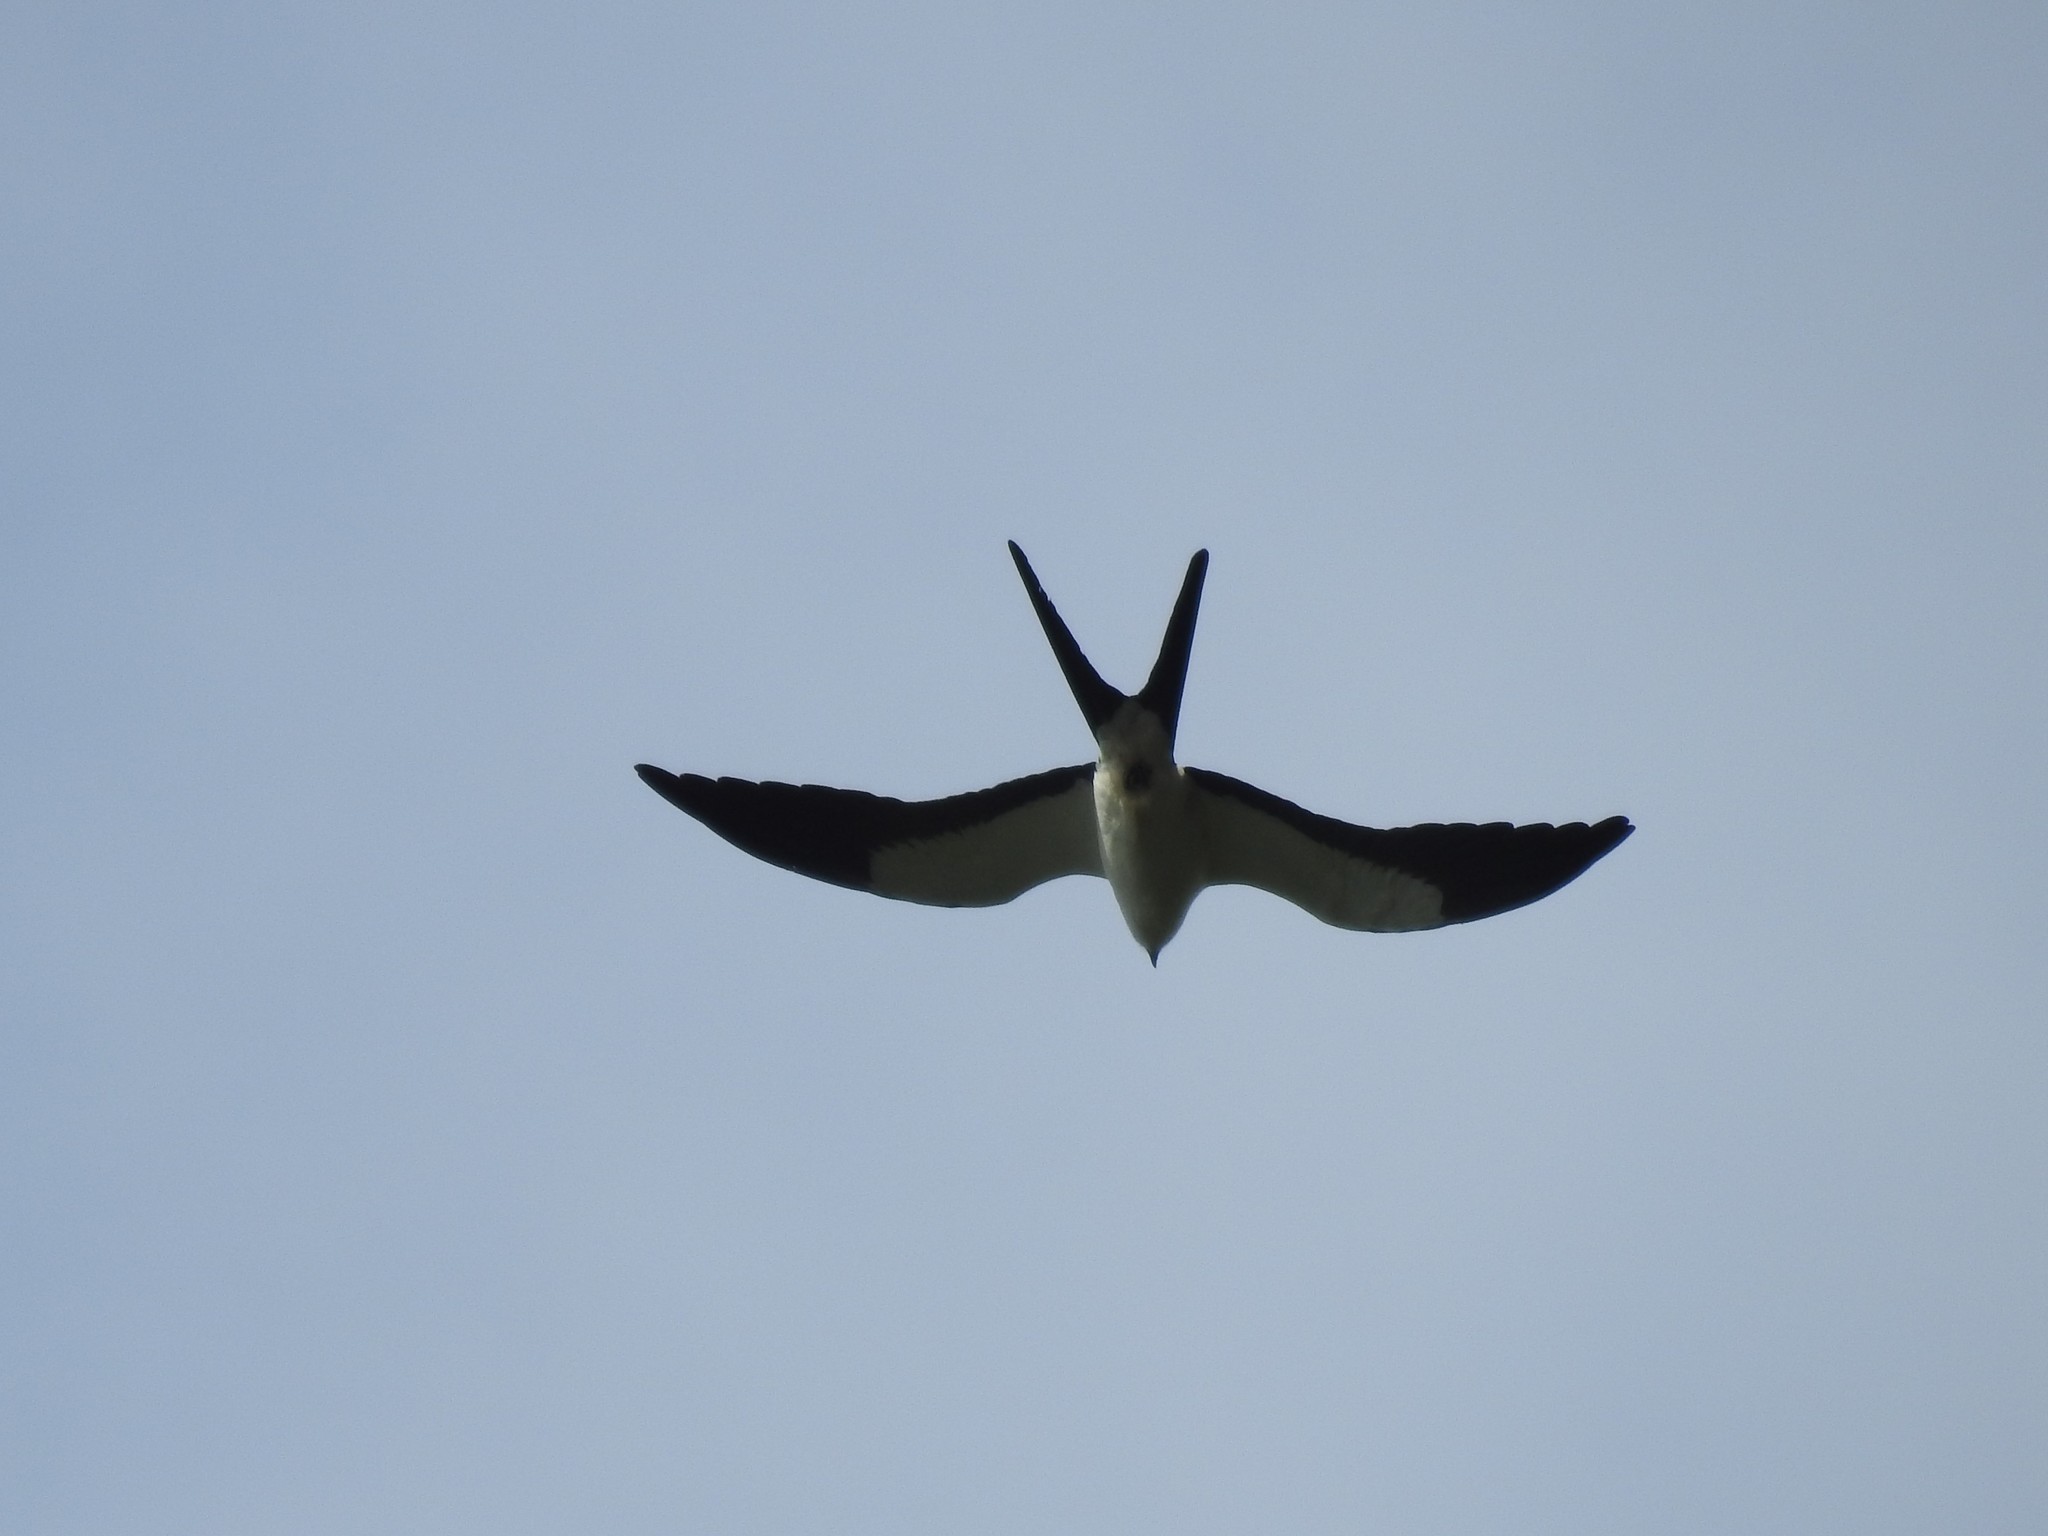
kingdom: Animalia
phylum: Chordata
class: Aves
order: Accipitriformes
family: Accipitridae
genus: Elanoides
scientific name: Elanoides forficatus
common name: Swallow-tailed kite
